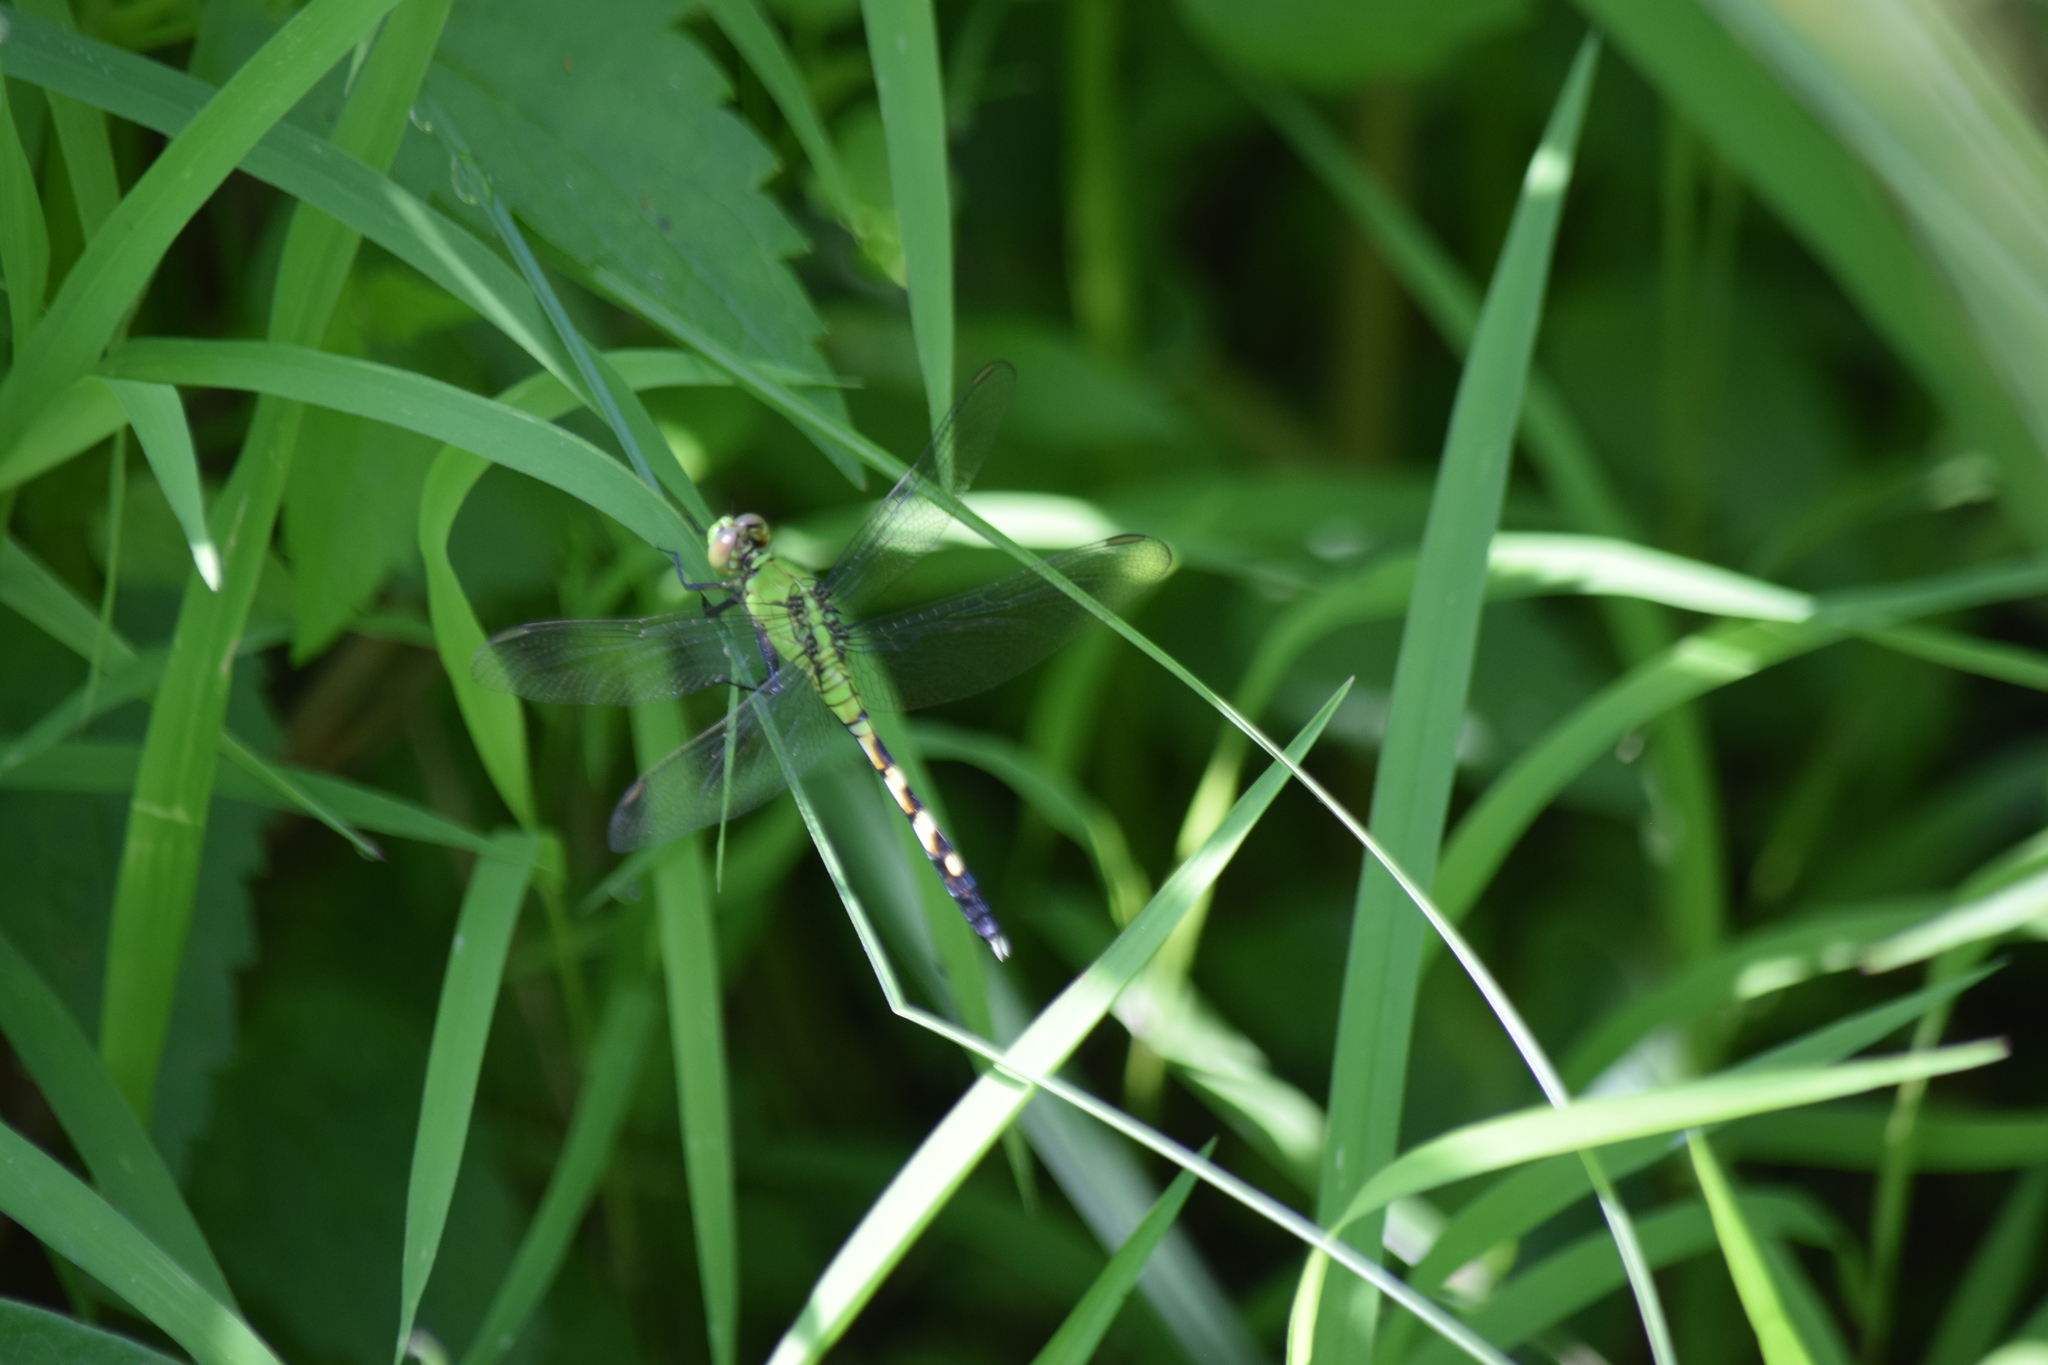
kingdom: Animalia
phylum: Arthropoda
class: Insecta
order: Odonata
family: Libellulidae
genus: Erythemis
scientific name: Erythemis simplicicollis
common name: Eastern pondhawk
